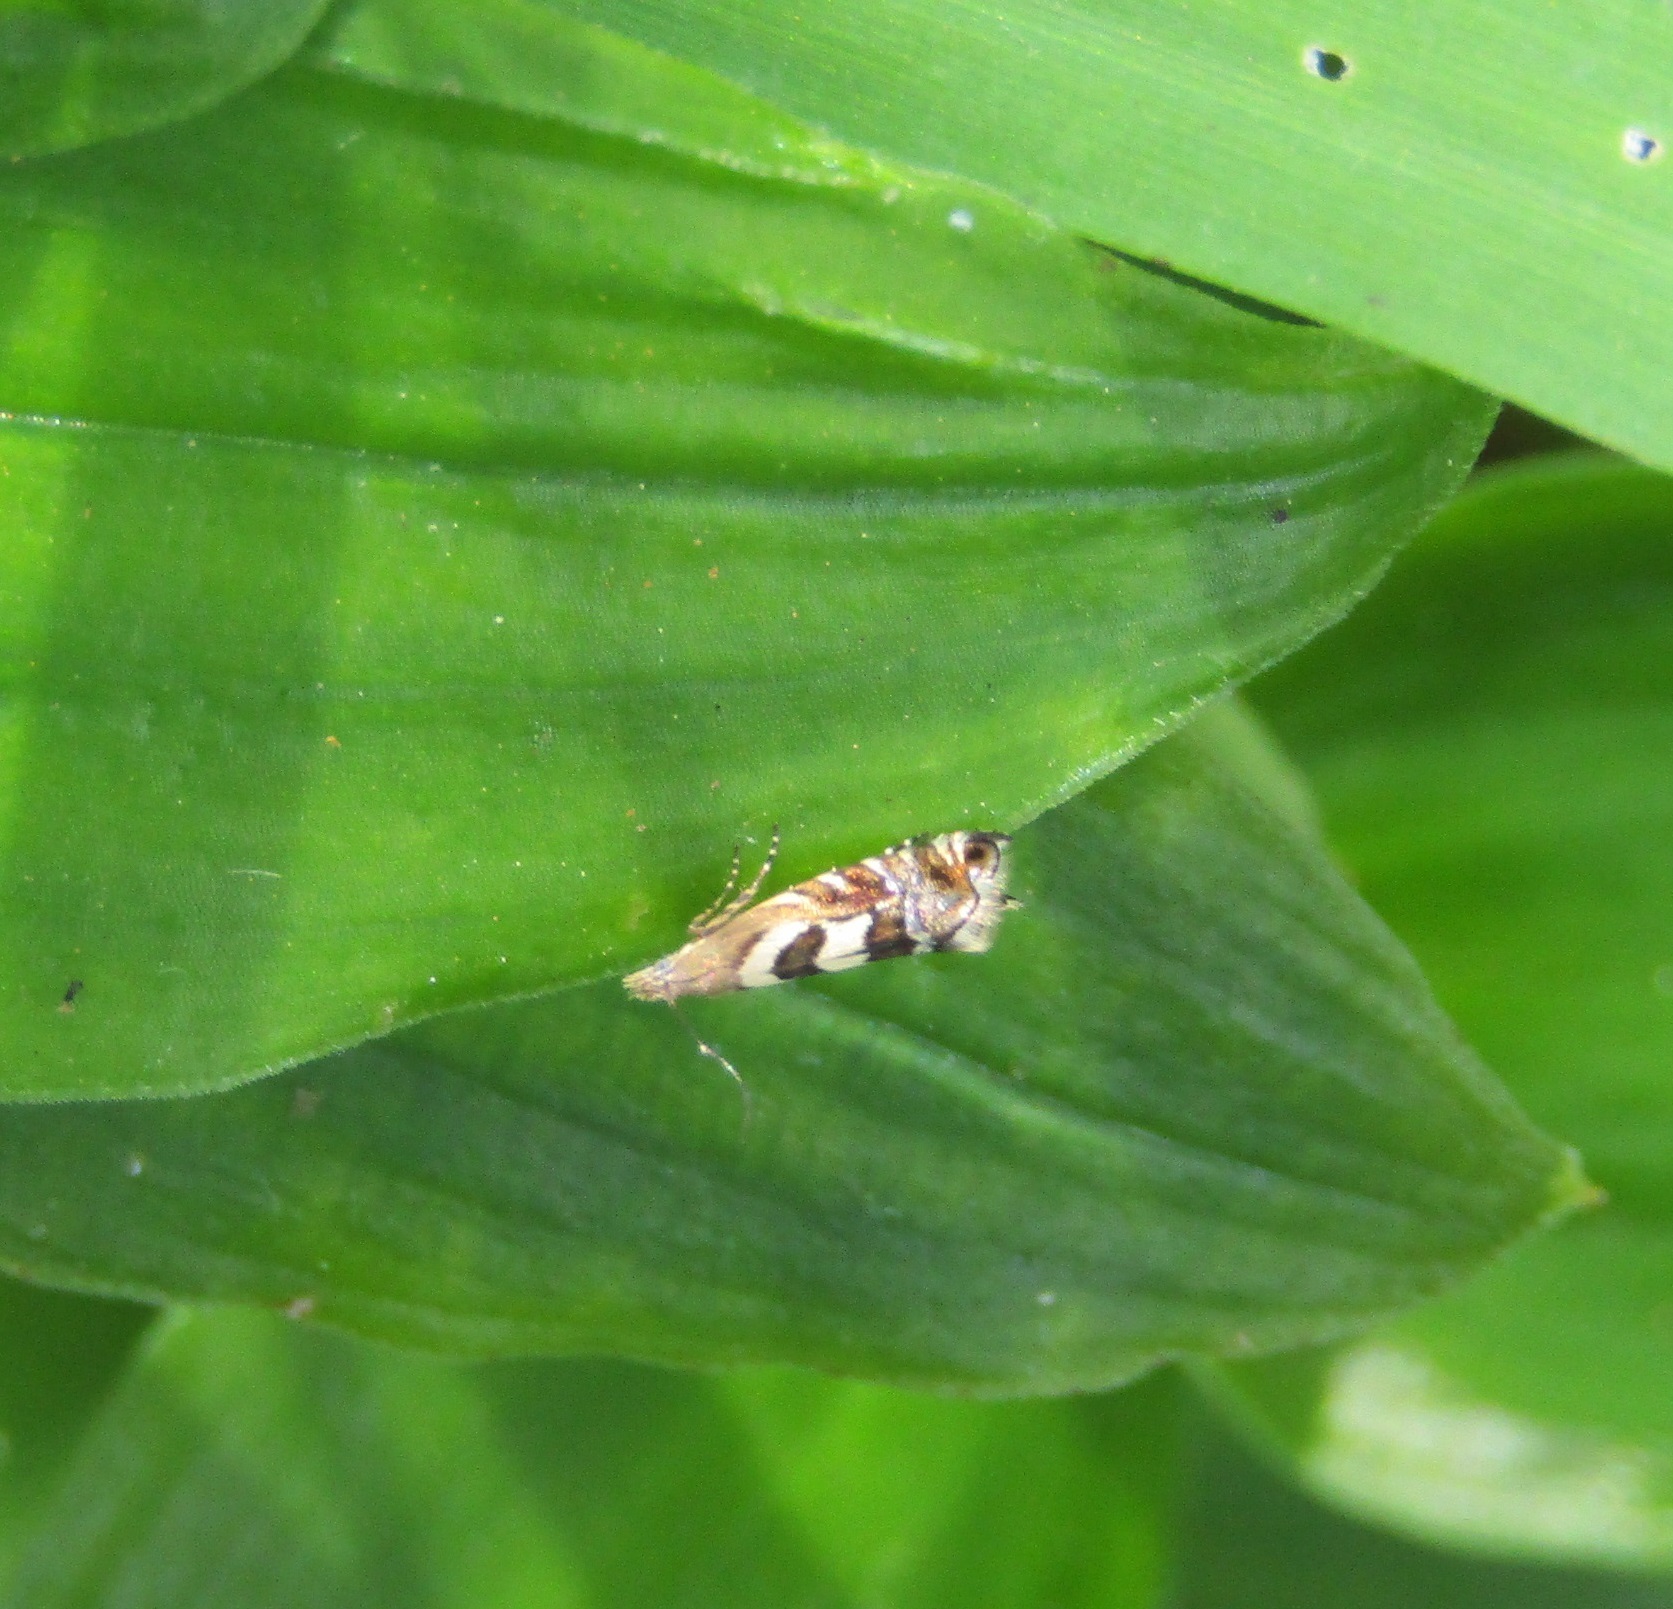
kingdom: Animalia
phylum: Arthropoda
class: Insecta
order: Lepidoptera
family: Glyphipterigidae
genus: Glyphipterix
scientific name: Glyphipterix asteronota
